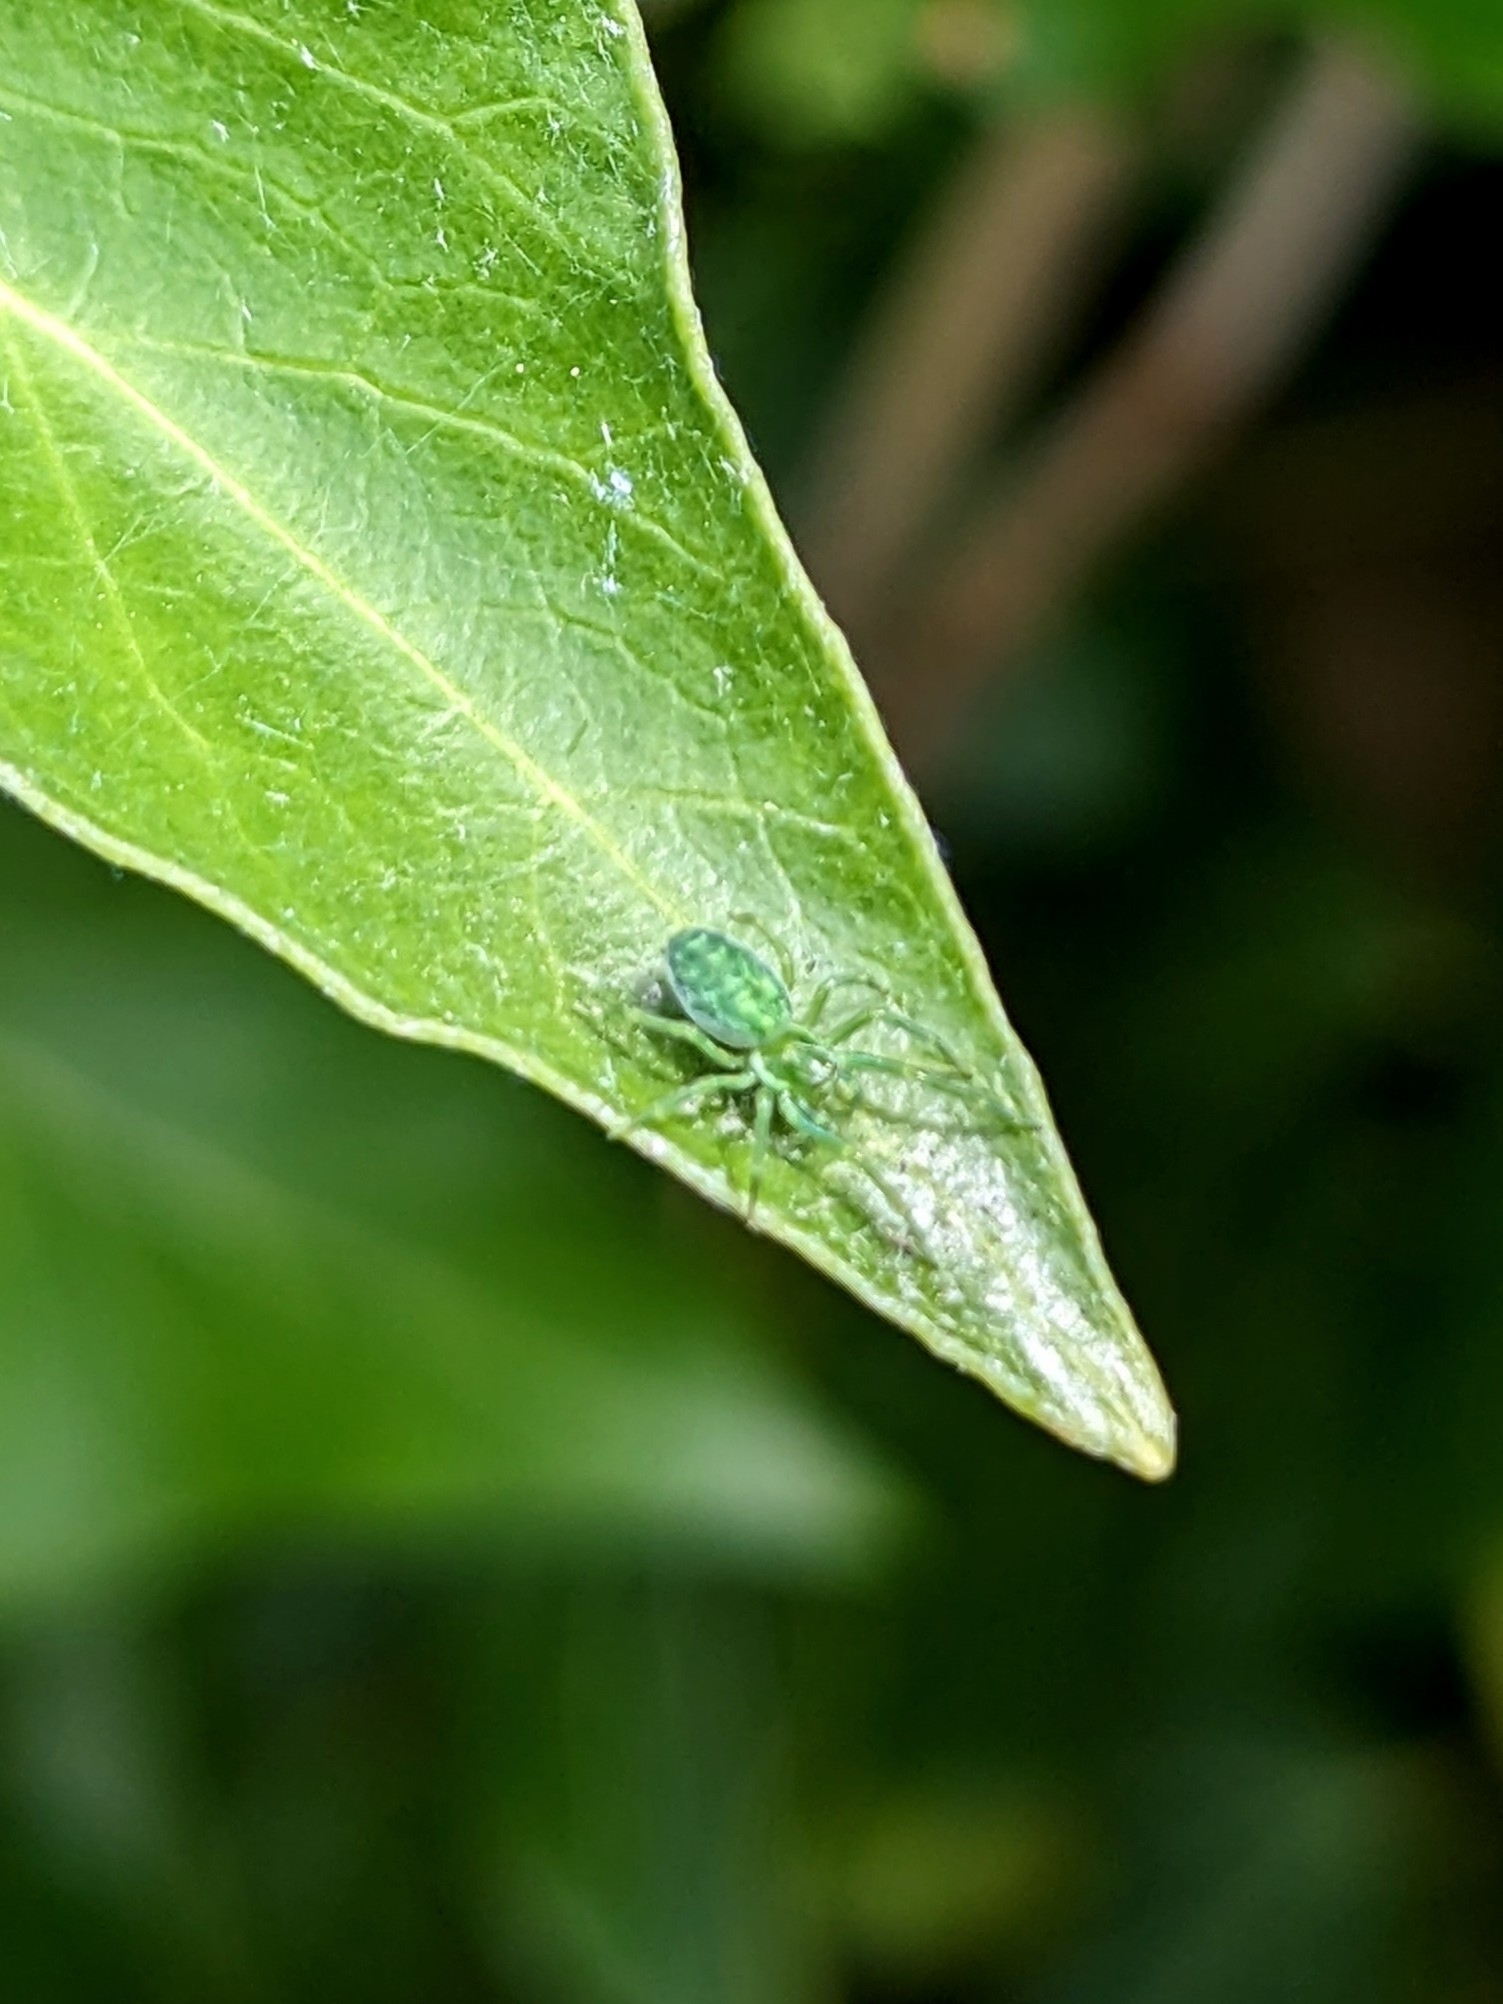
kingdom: Animalia
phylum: Arthropoda
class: Arachnida
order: Araneae
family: Dictynidae
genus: Nigma
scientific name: Nigma walckenaeri
